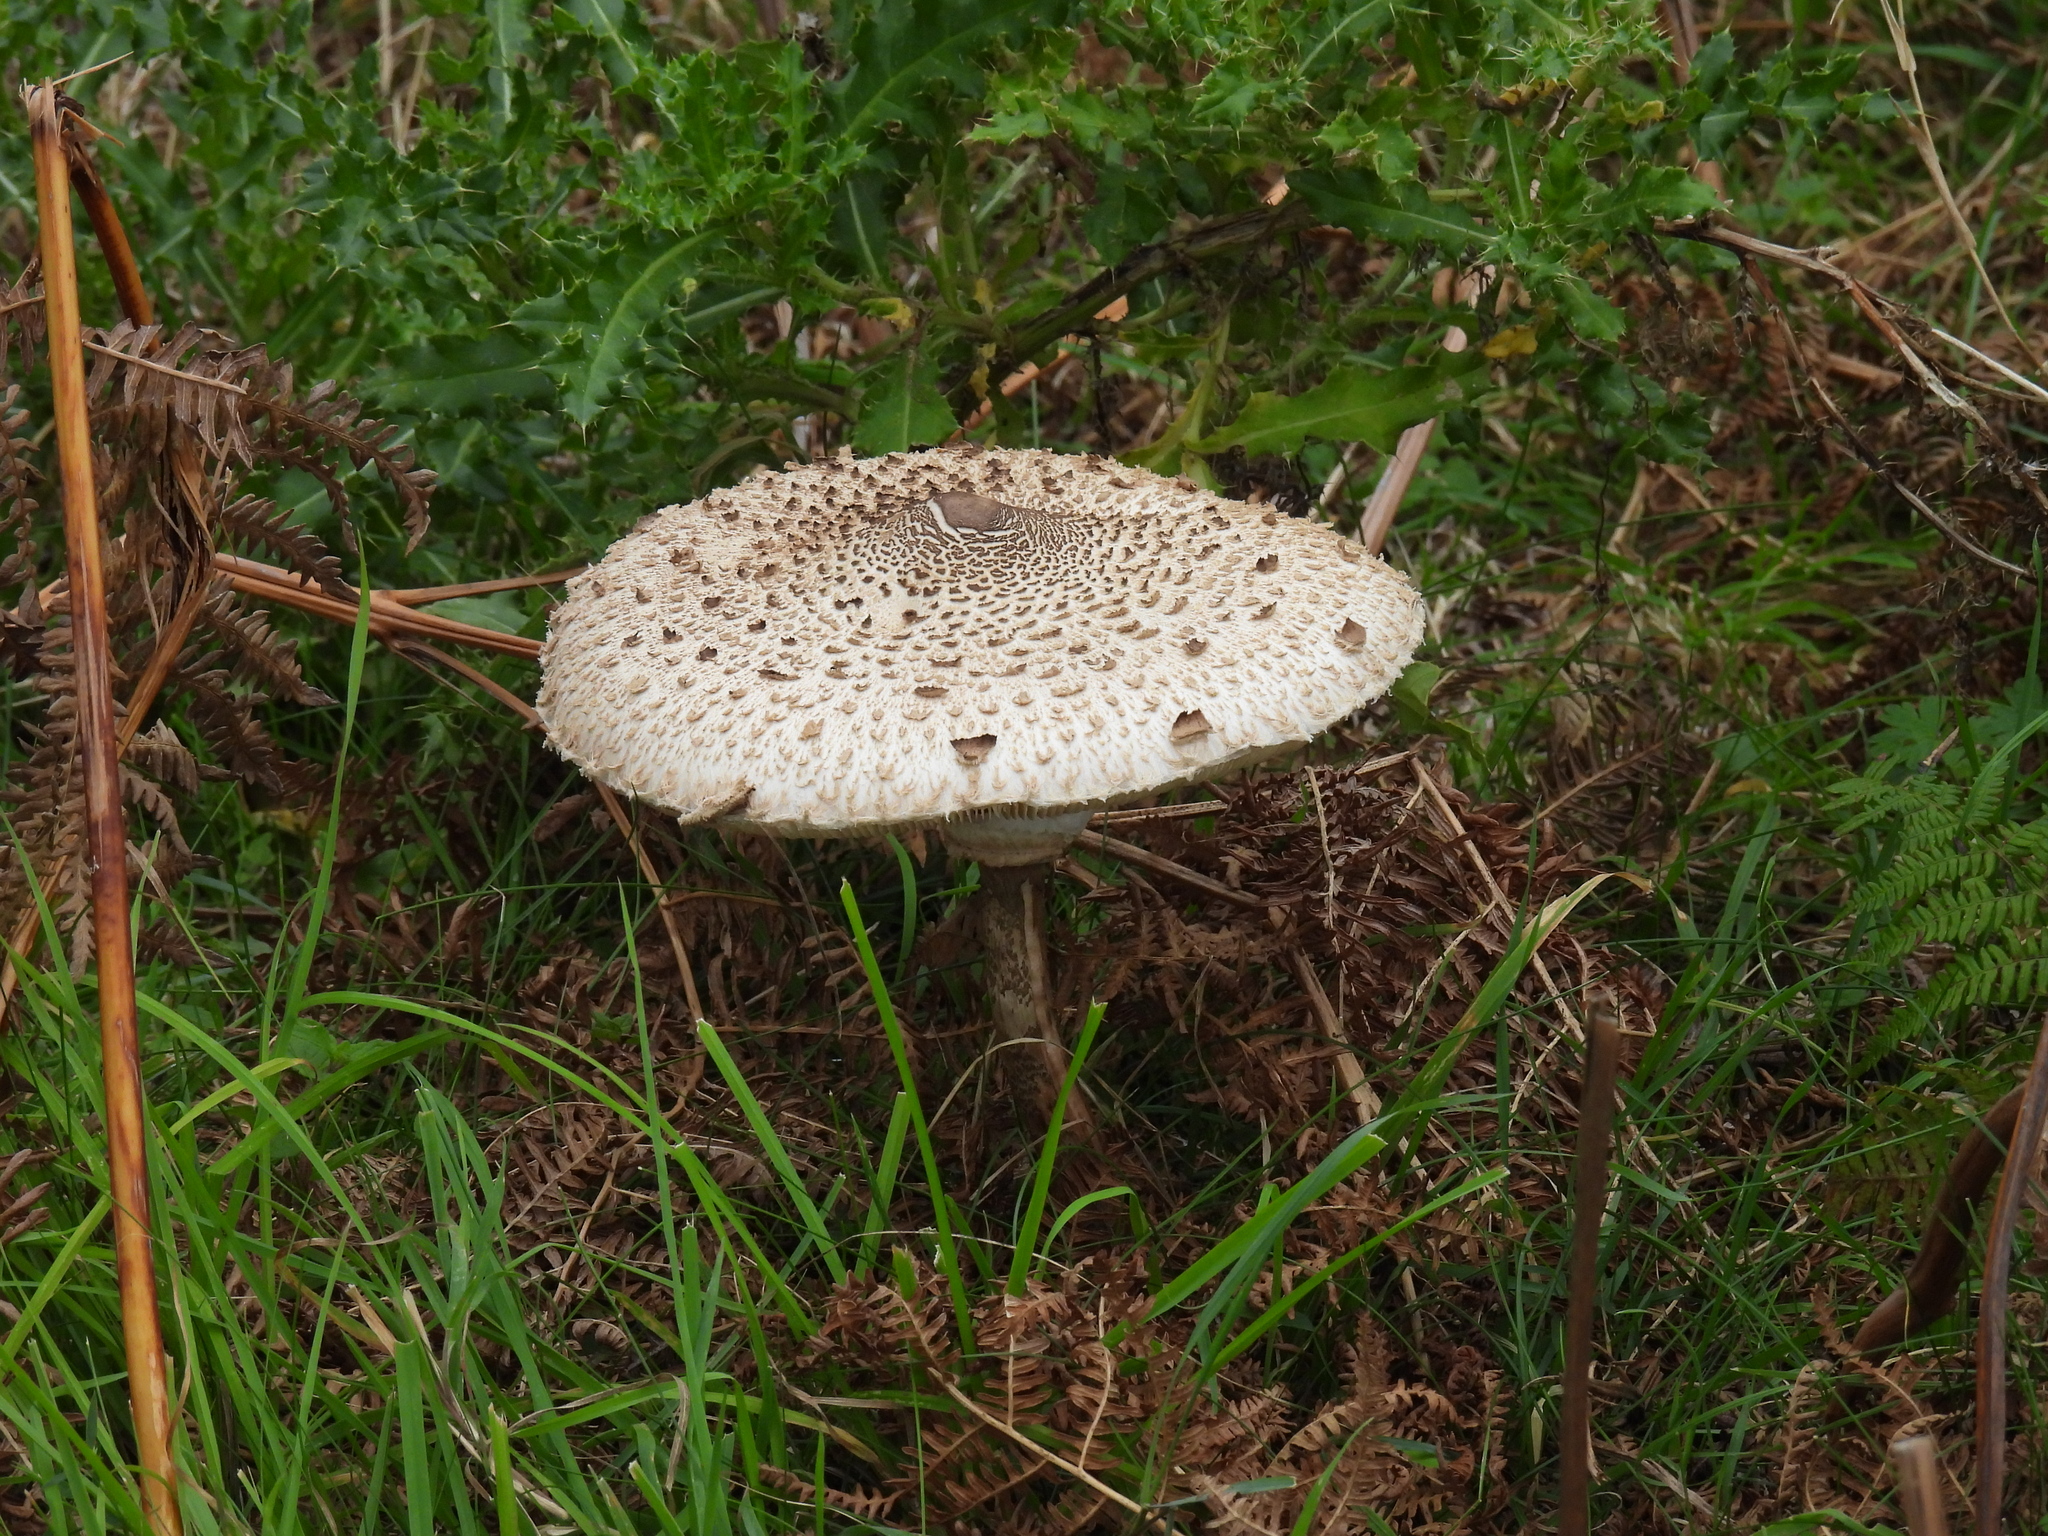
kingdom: Fungi
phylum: Basidiomycota
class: Agaricomycetes
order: Agaricales
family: Agaricaceae
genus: Macrolepiota
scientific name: Macrolepiota procera
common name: Parasol
